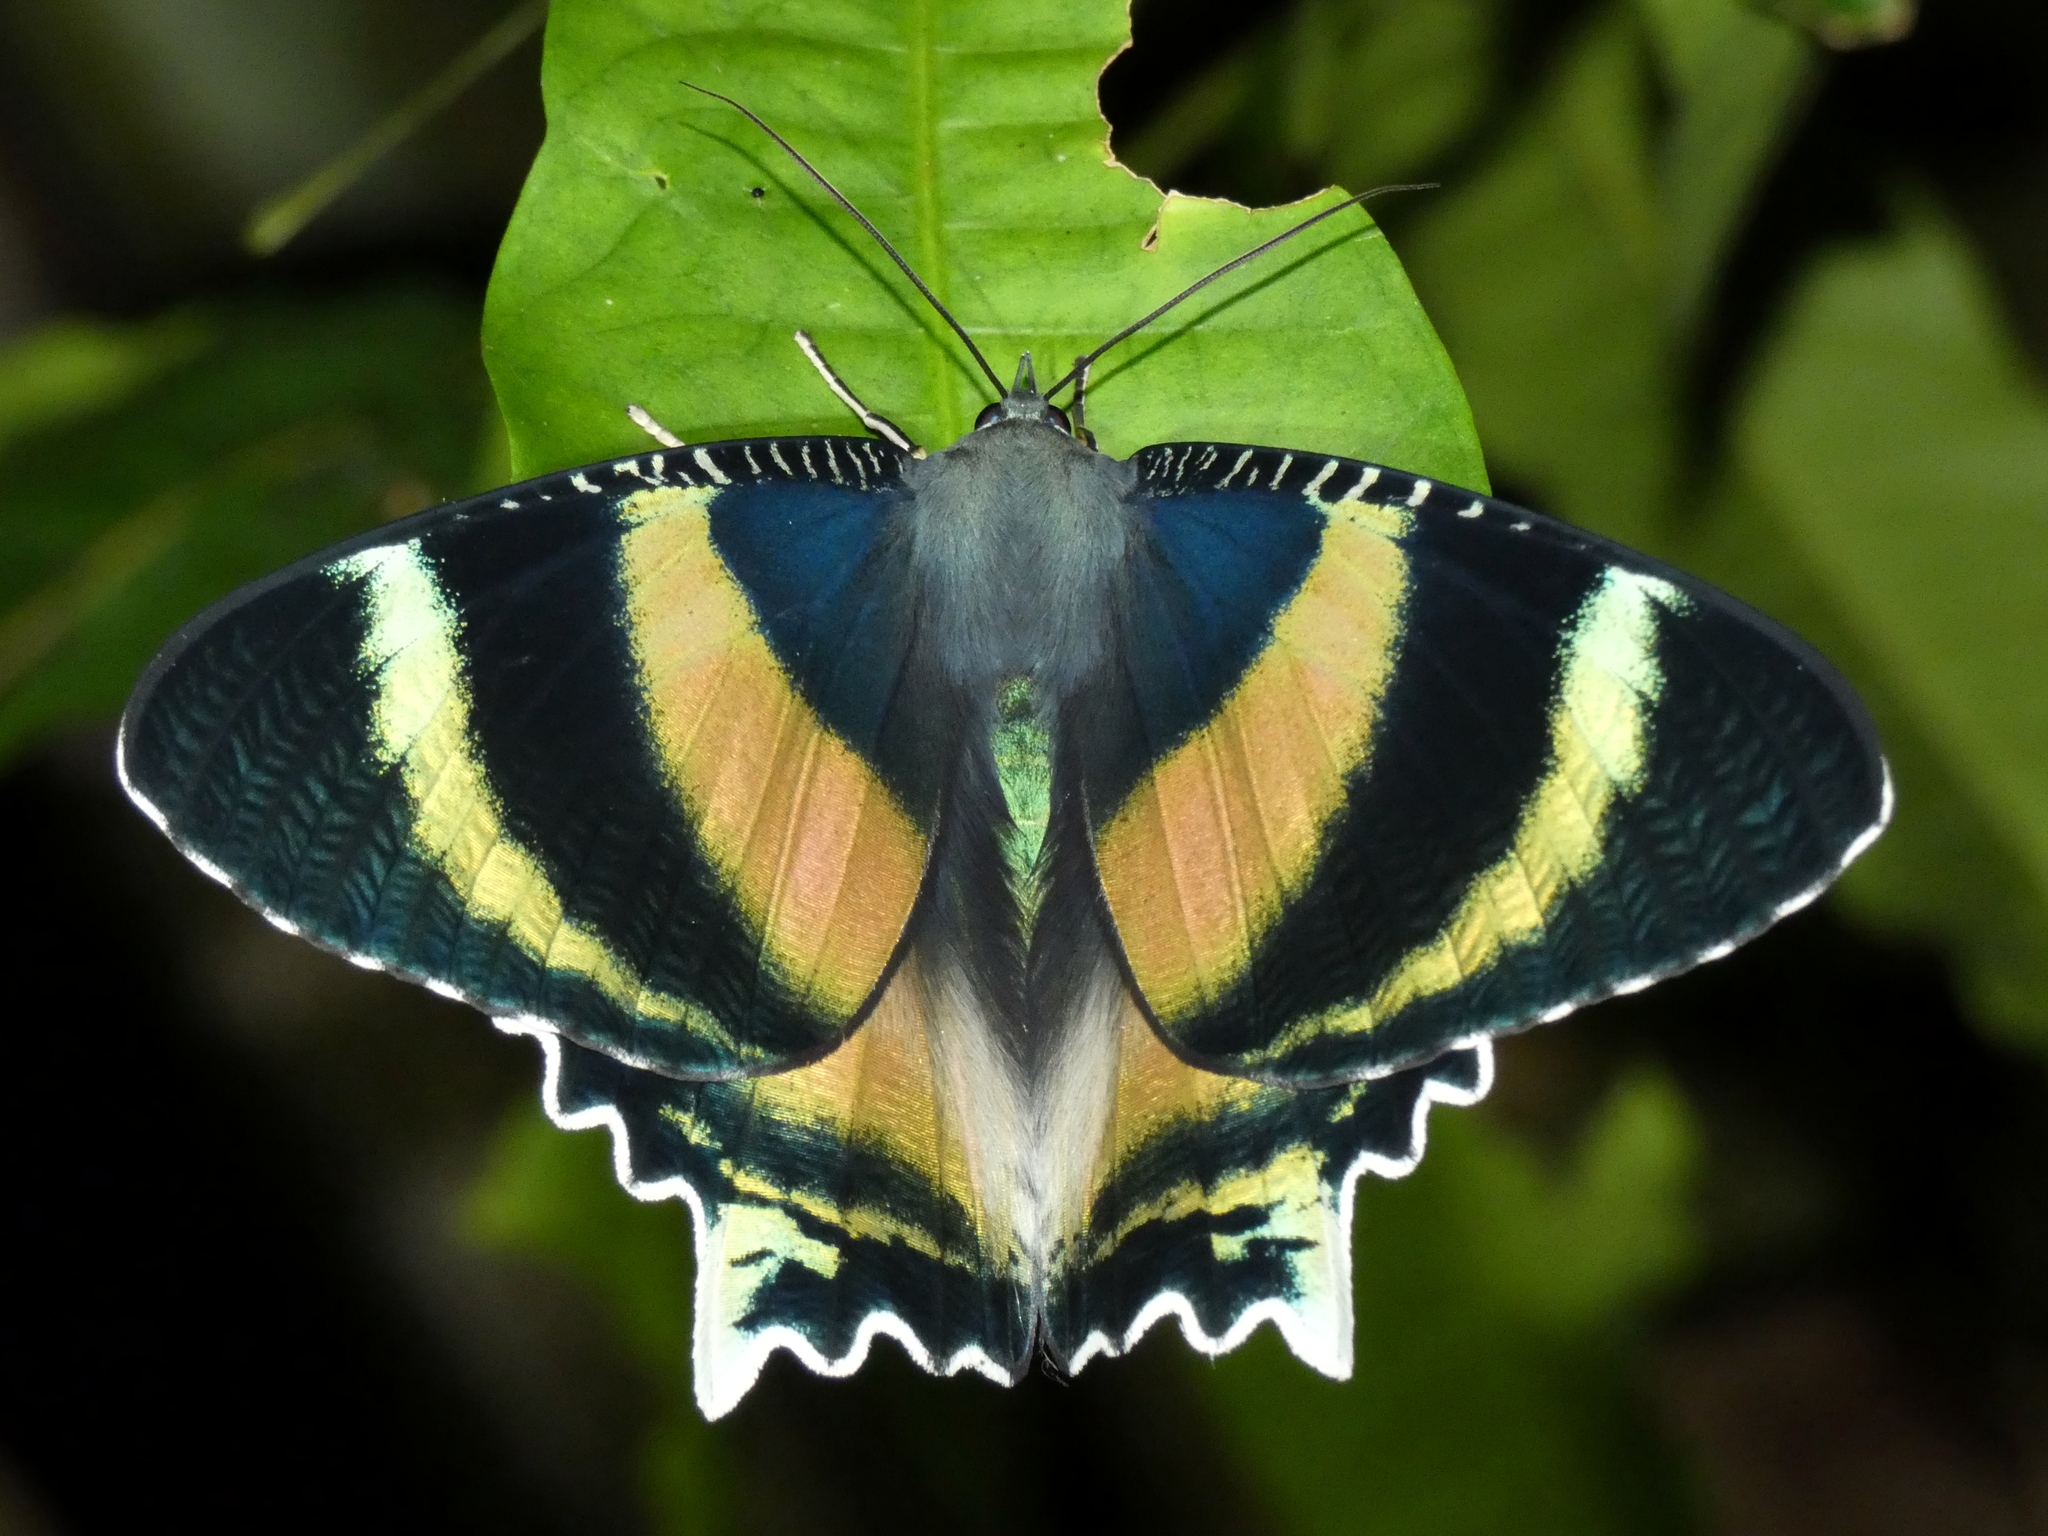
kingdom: Animalia
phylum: Arthropoda
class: Insecta
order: Lepidoptera
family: Uraniidae
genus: Alcides
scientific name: Alcides metaurus
